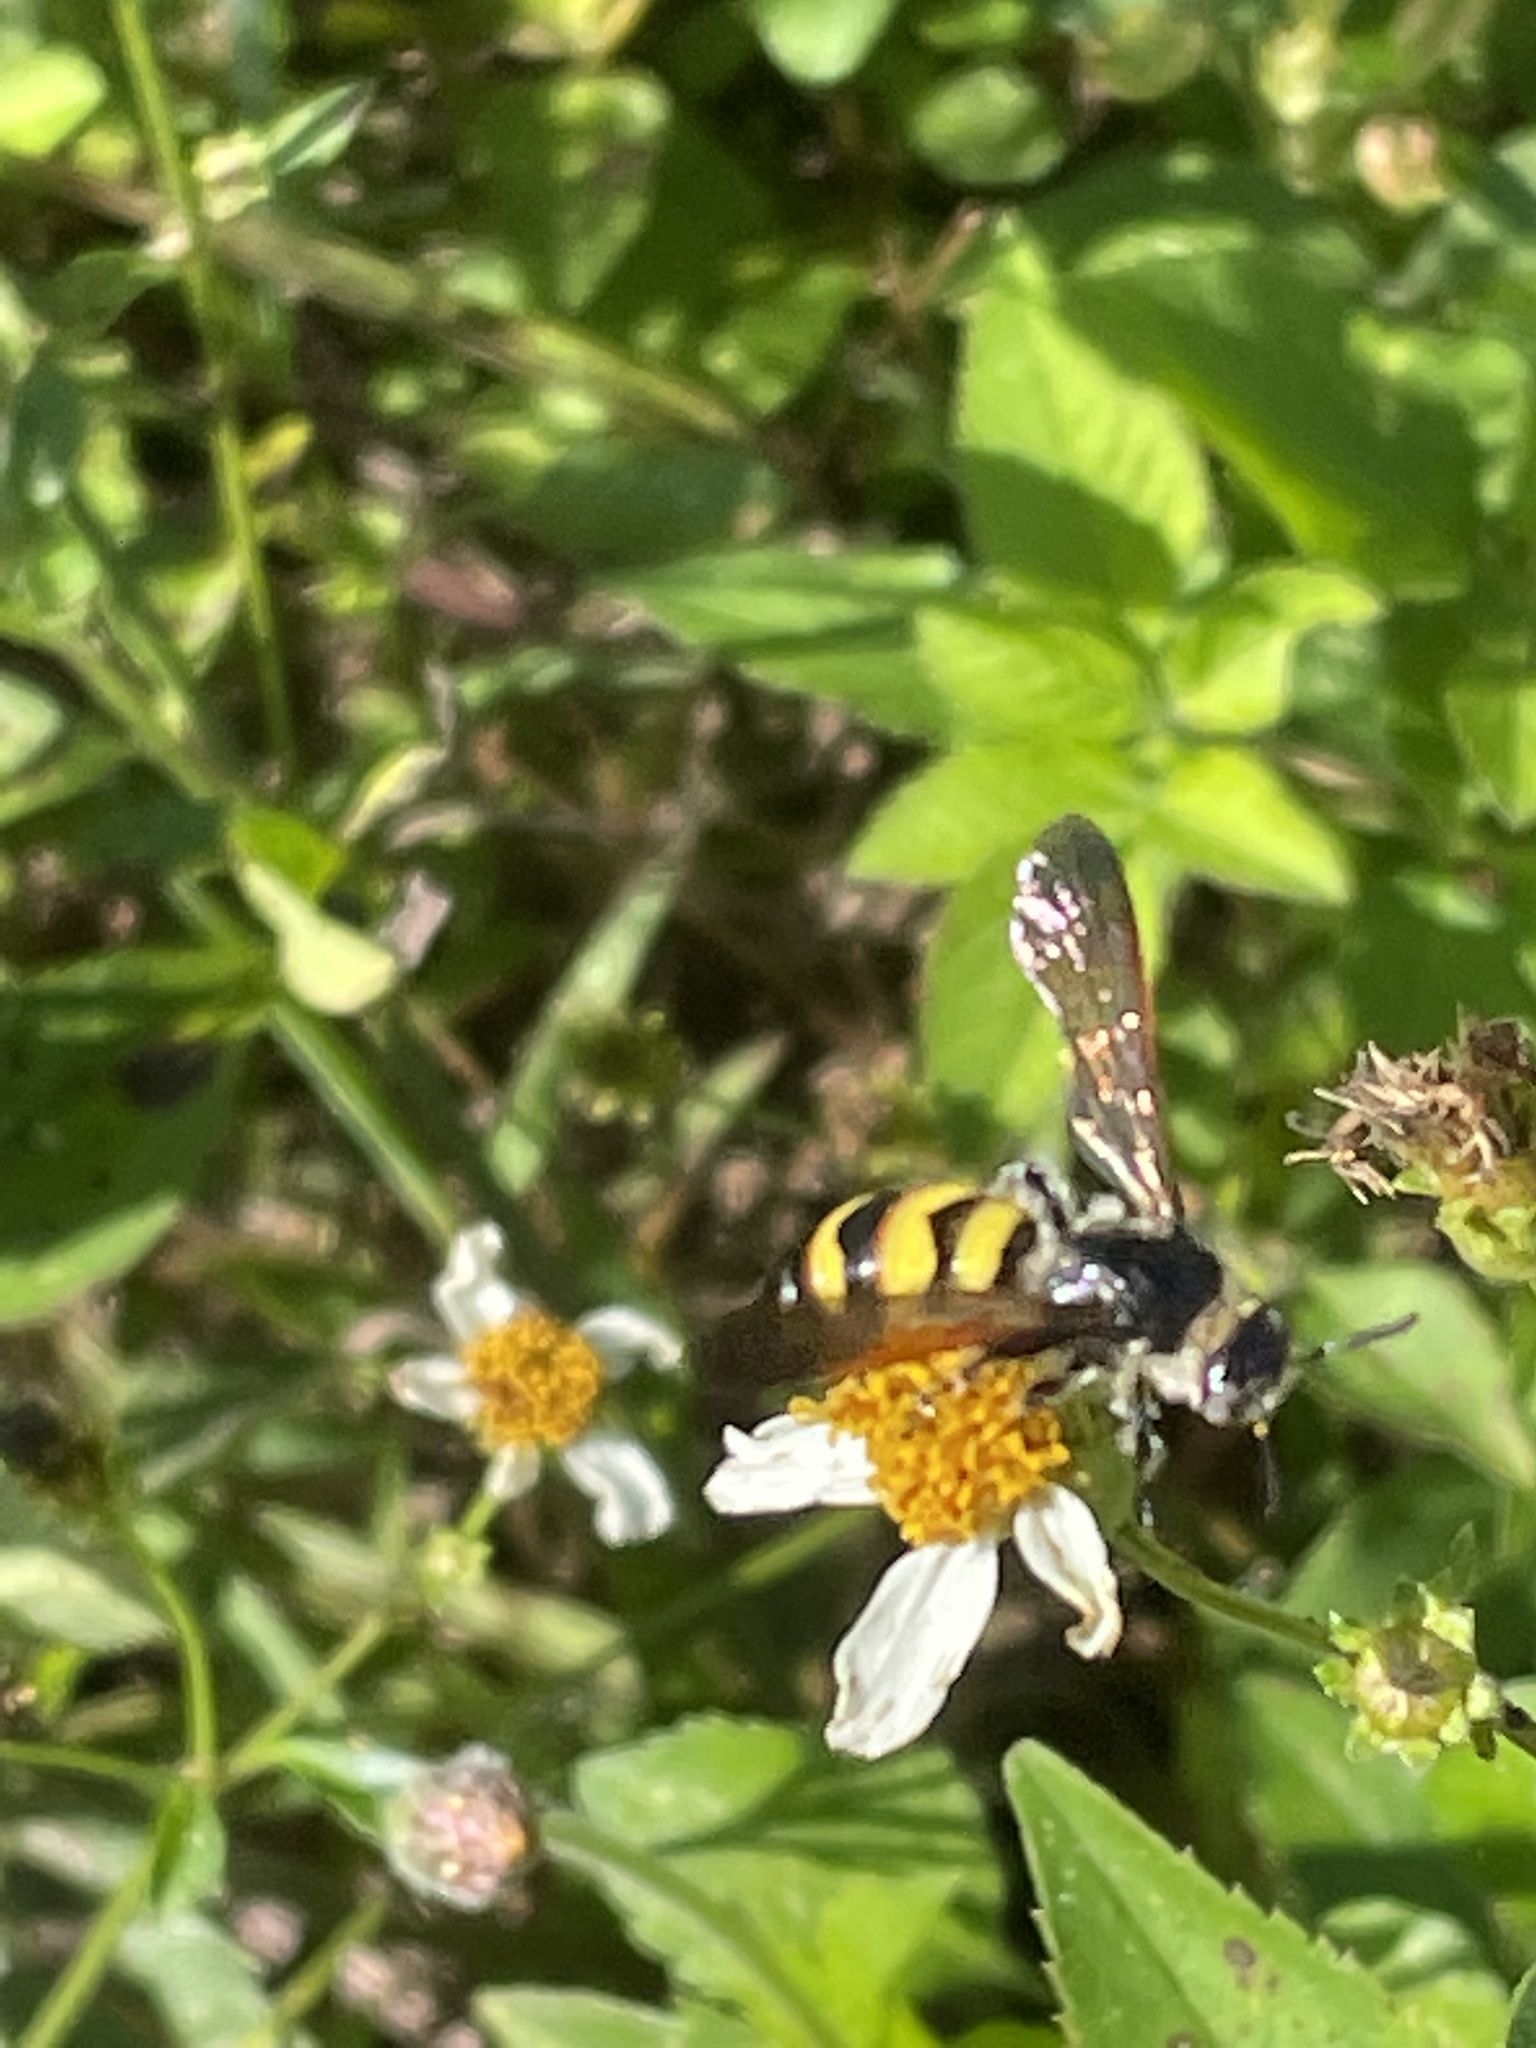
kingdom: Animalia
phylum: Arthropoda
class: Insecta
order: Hymenoptera
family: Scoliidae
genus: Dielis
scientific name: Dielis
